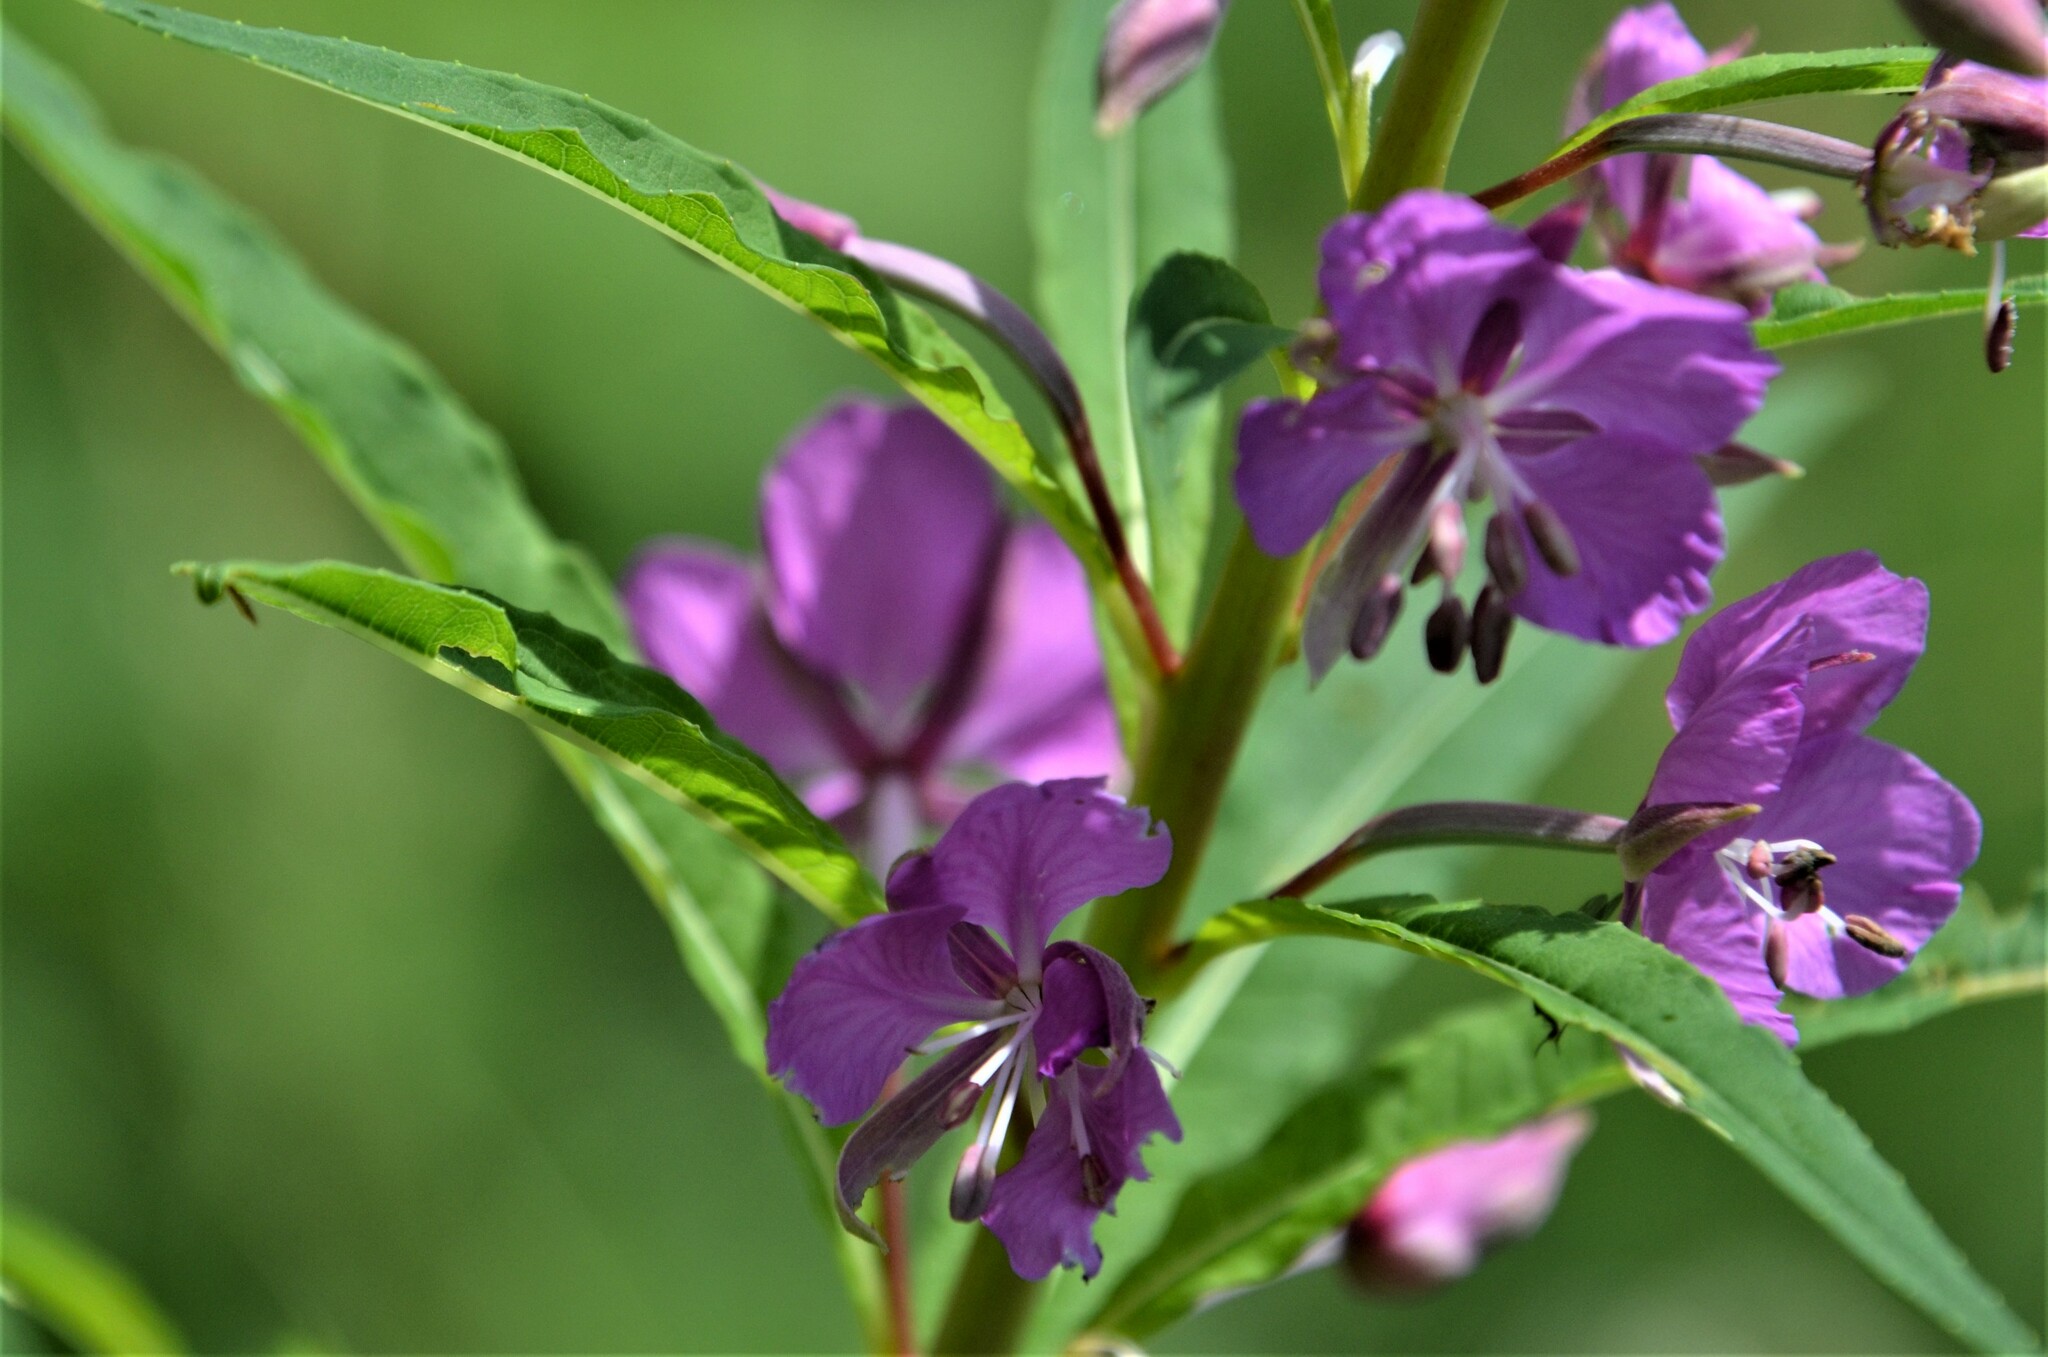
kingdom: Plantae
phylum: Tracheophyta
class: Magnoliopsida
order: Myrtales
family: Onagraceae
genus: Chamaenerion
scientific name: Chamaenerion angustifolium
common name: Fireweed
